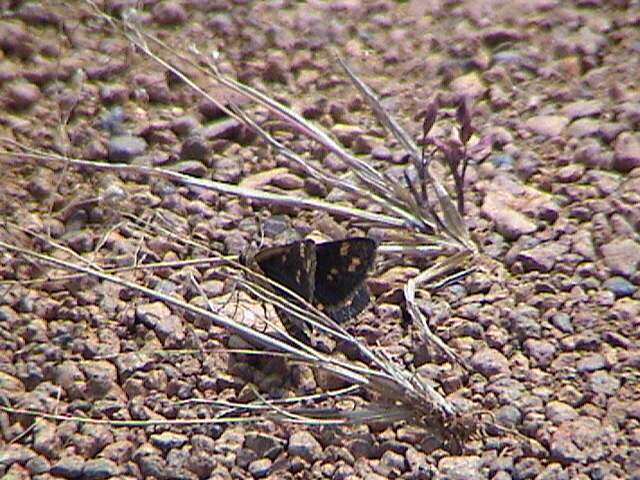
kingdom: Animalia
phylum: Arthropoda
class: Insecta
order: Lepidoptera
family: Hesperiidae
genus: Taractrocera
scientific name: Taractrocera ceramas
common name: Tamil grass dart
